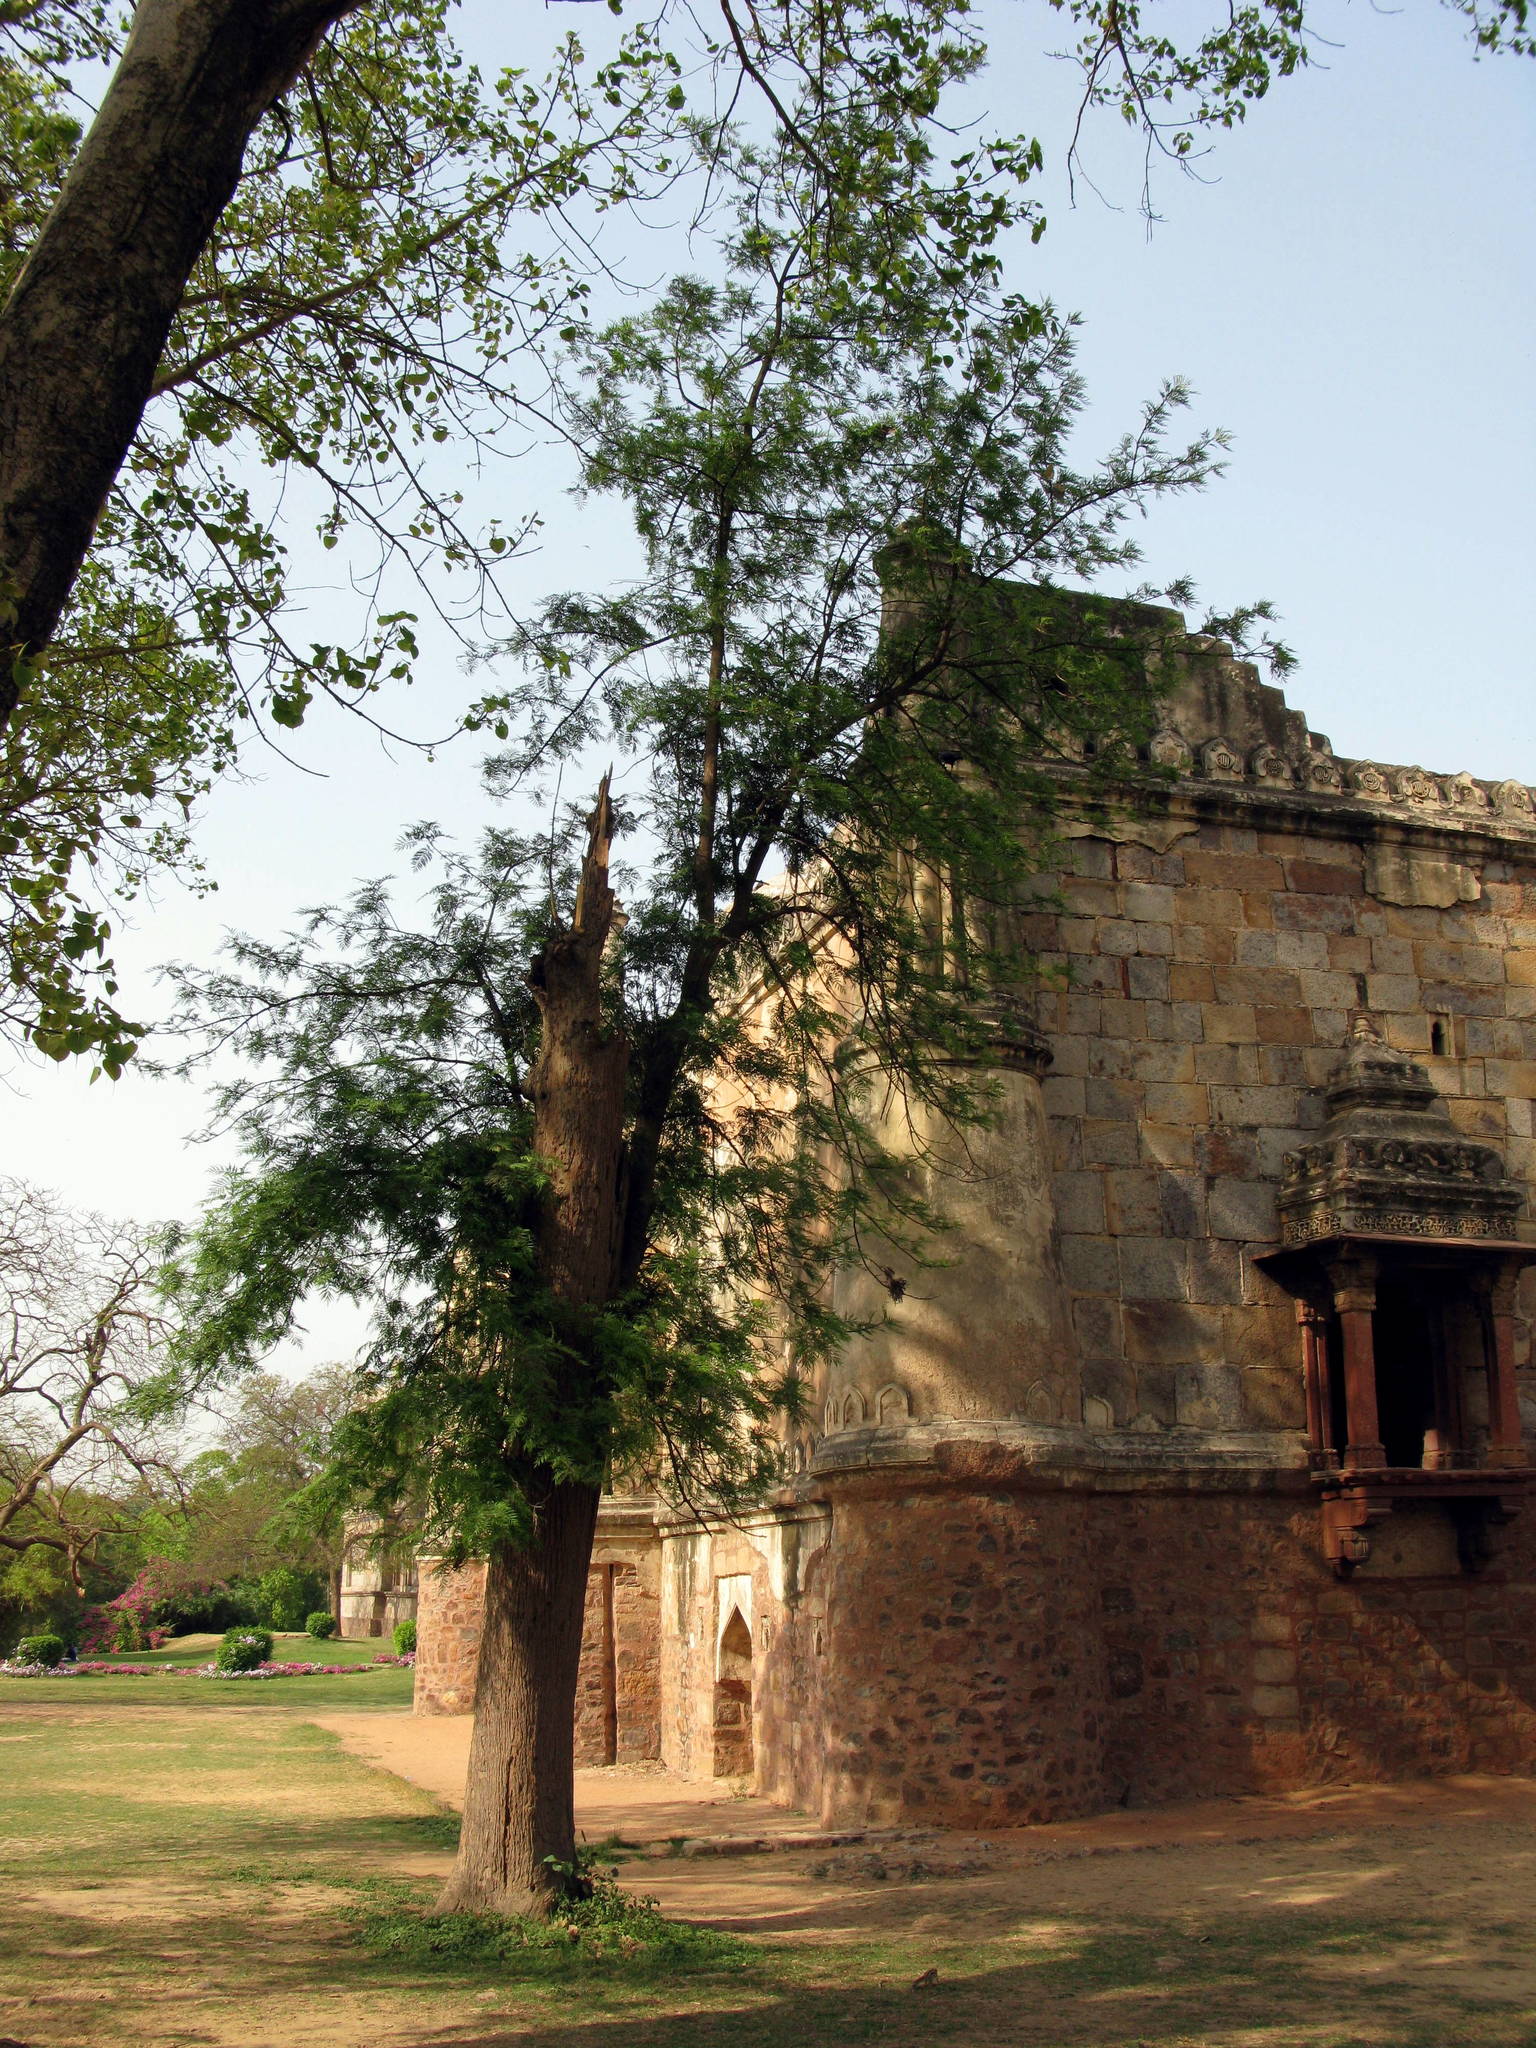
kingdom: Plantae
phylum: Tracheophyta
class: Magnoliopsida
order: Proteales
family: Proteaceae
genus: Grevillea
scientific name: Grevillea robusta
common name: Silkoak
